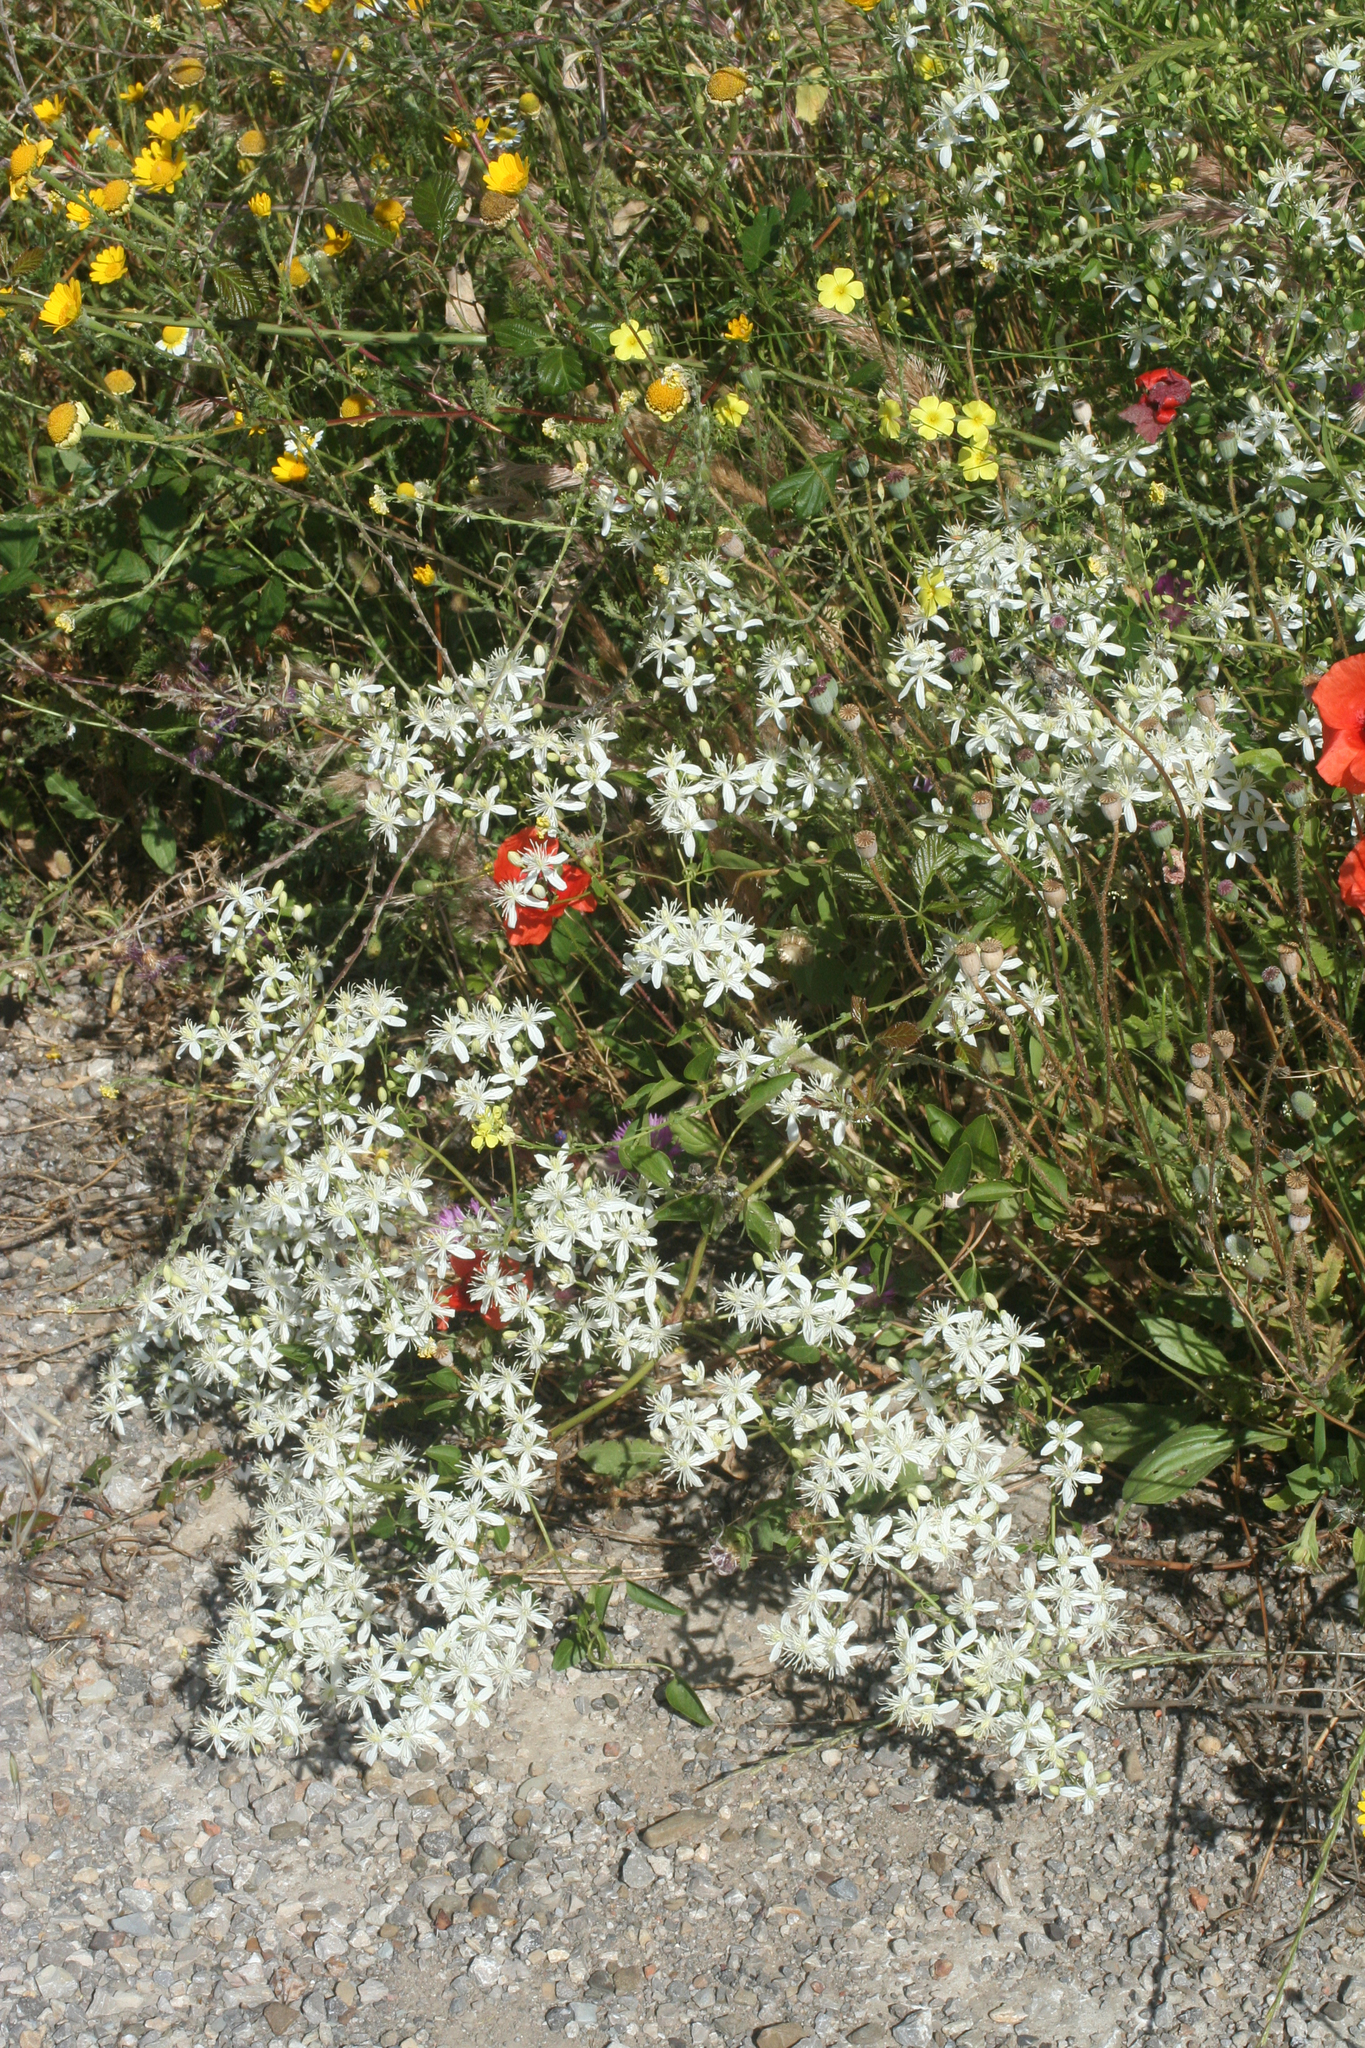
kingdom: Plantae
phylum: Tracheophyta
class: Magnoliopsida
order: Ranunculales
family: Ranunculaceae
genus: Clematis
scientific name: Clematis flammula
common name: Virgin's-bower
